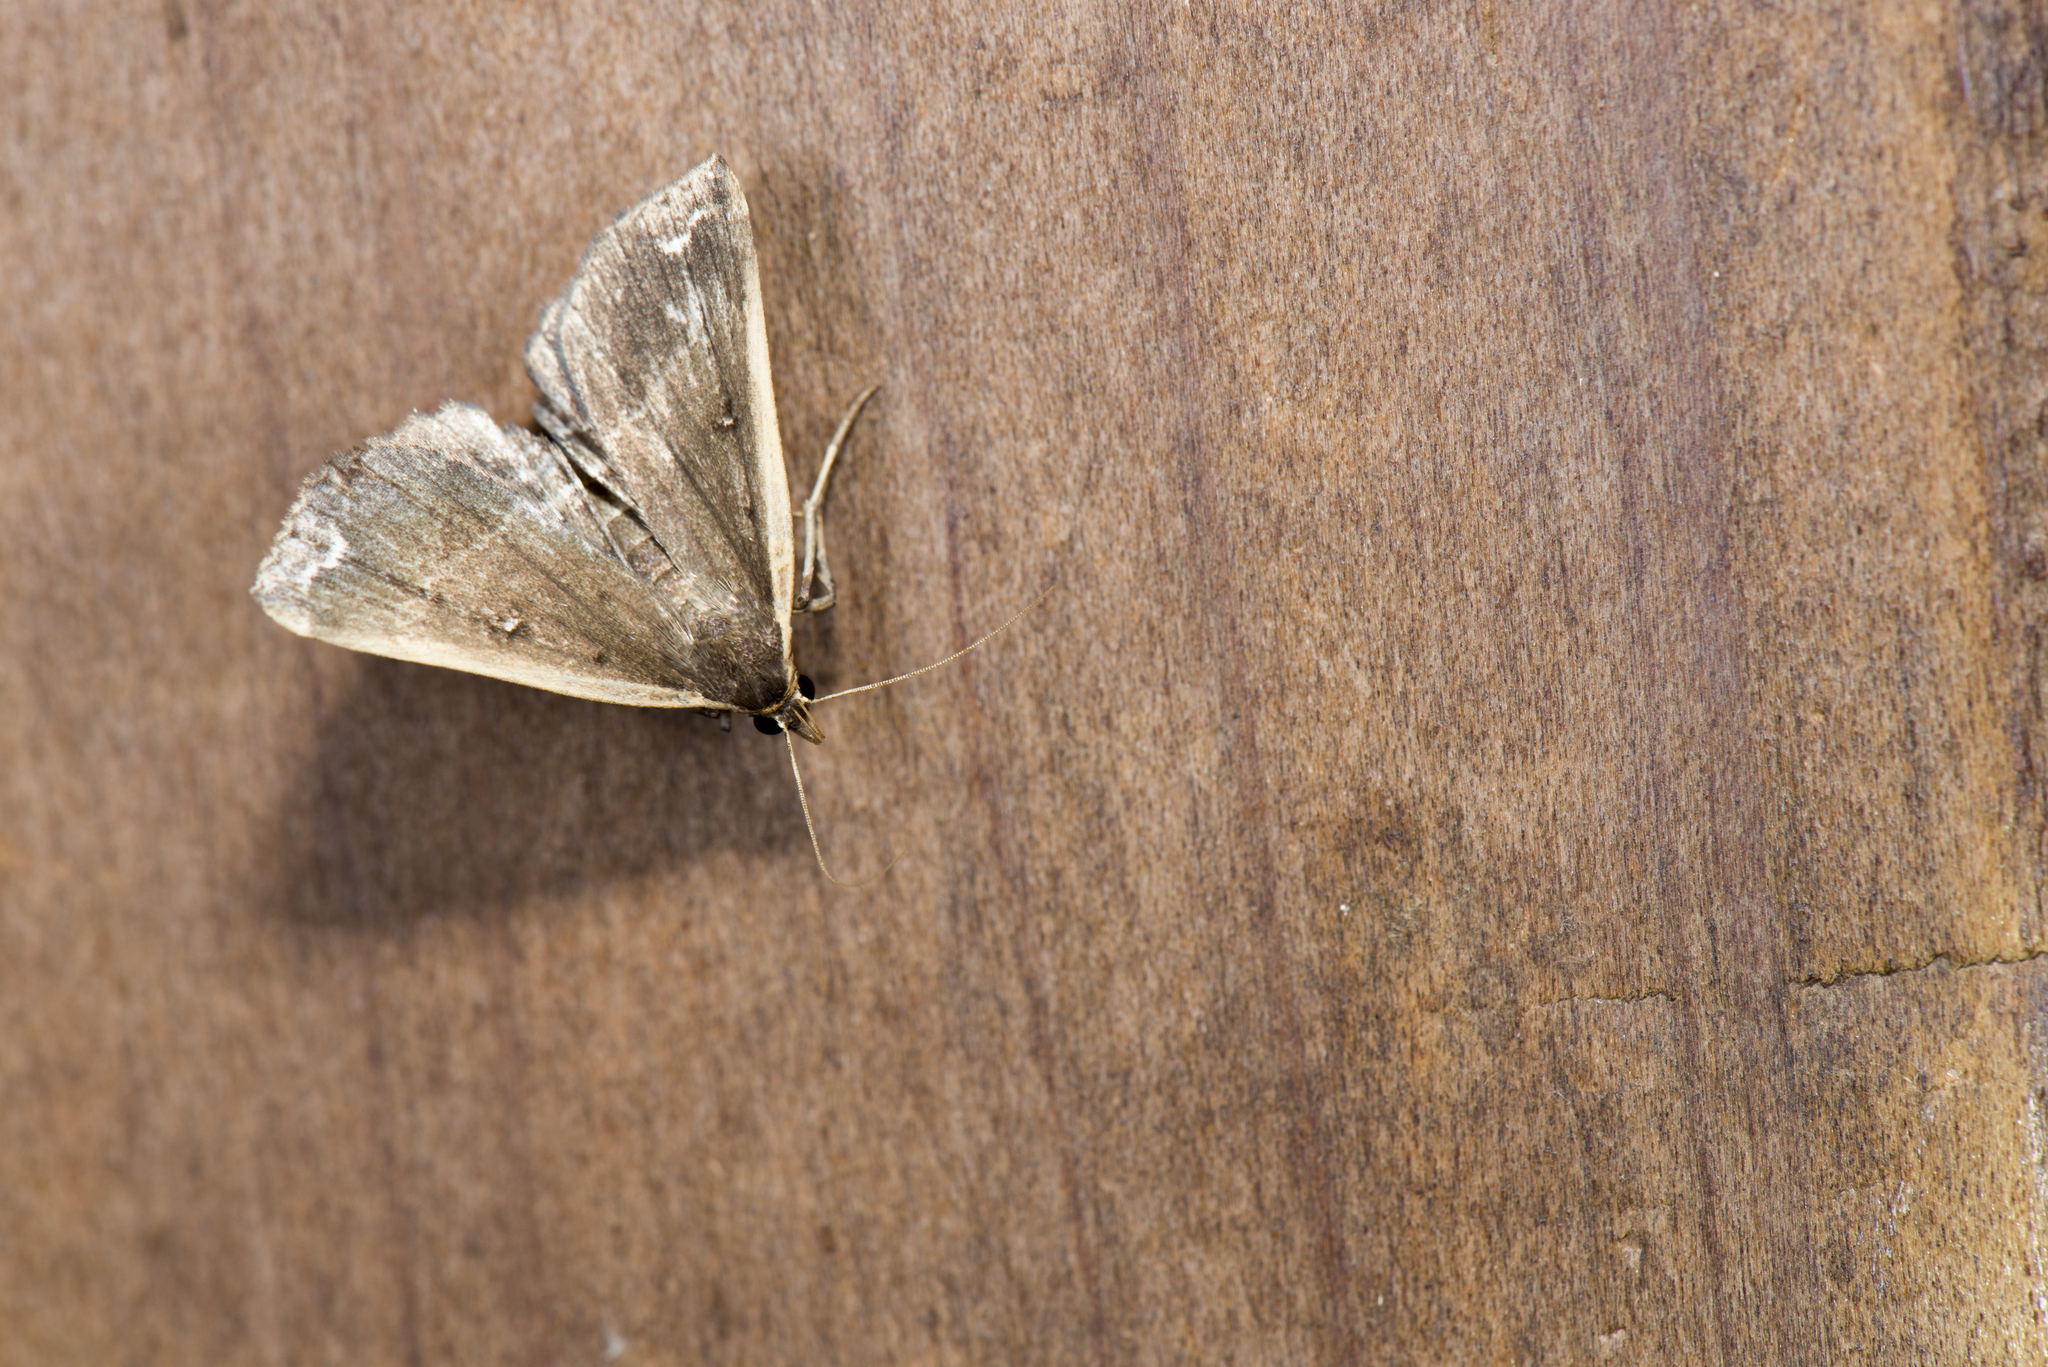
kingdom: Animalia
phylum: Arthropoda
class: Insecta
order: Lepidoptera
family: Erebidae
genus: Adrapsa
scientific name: Adrapsa ablualis
